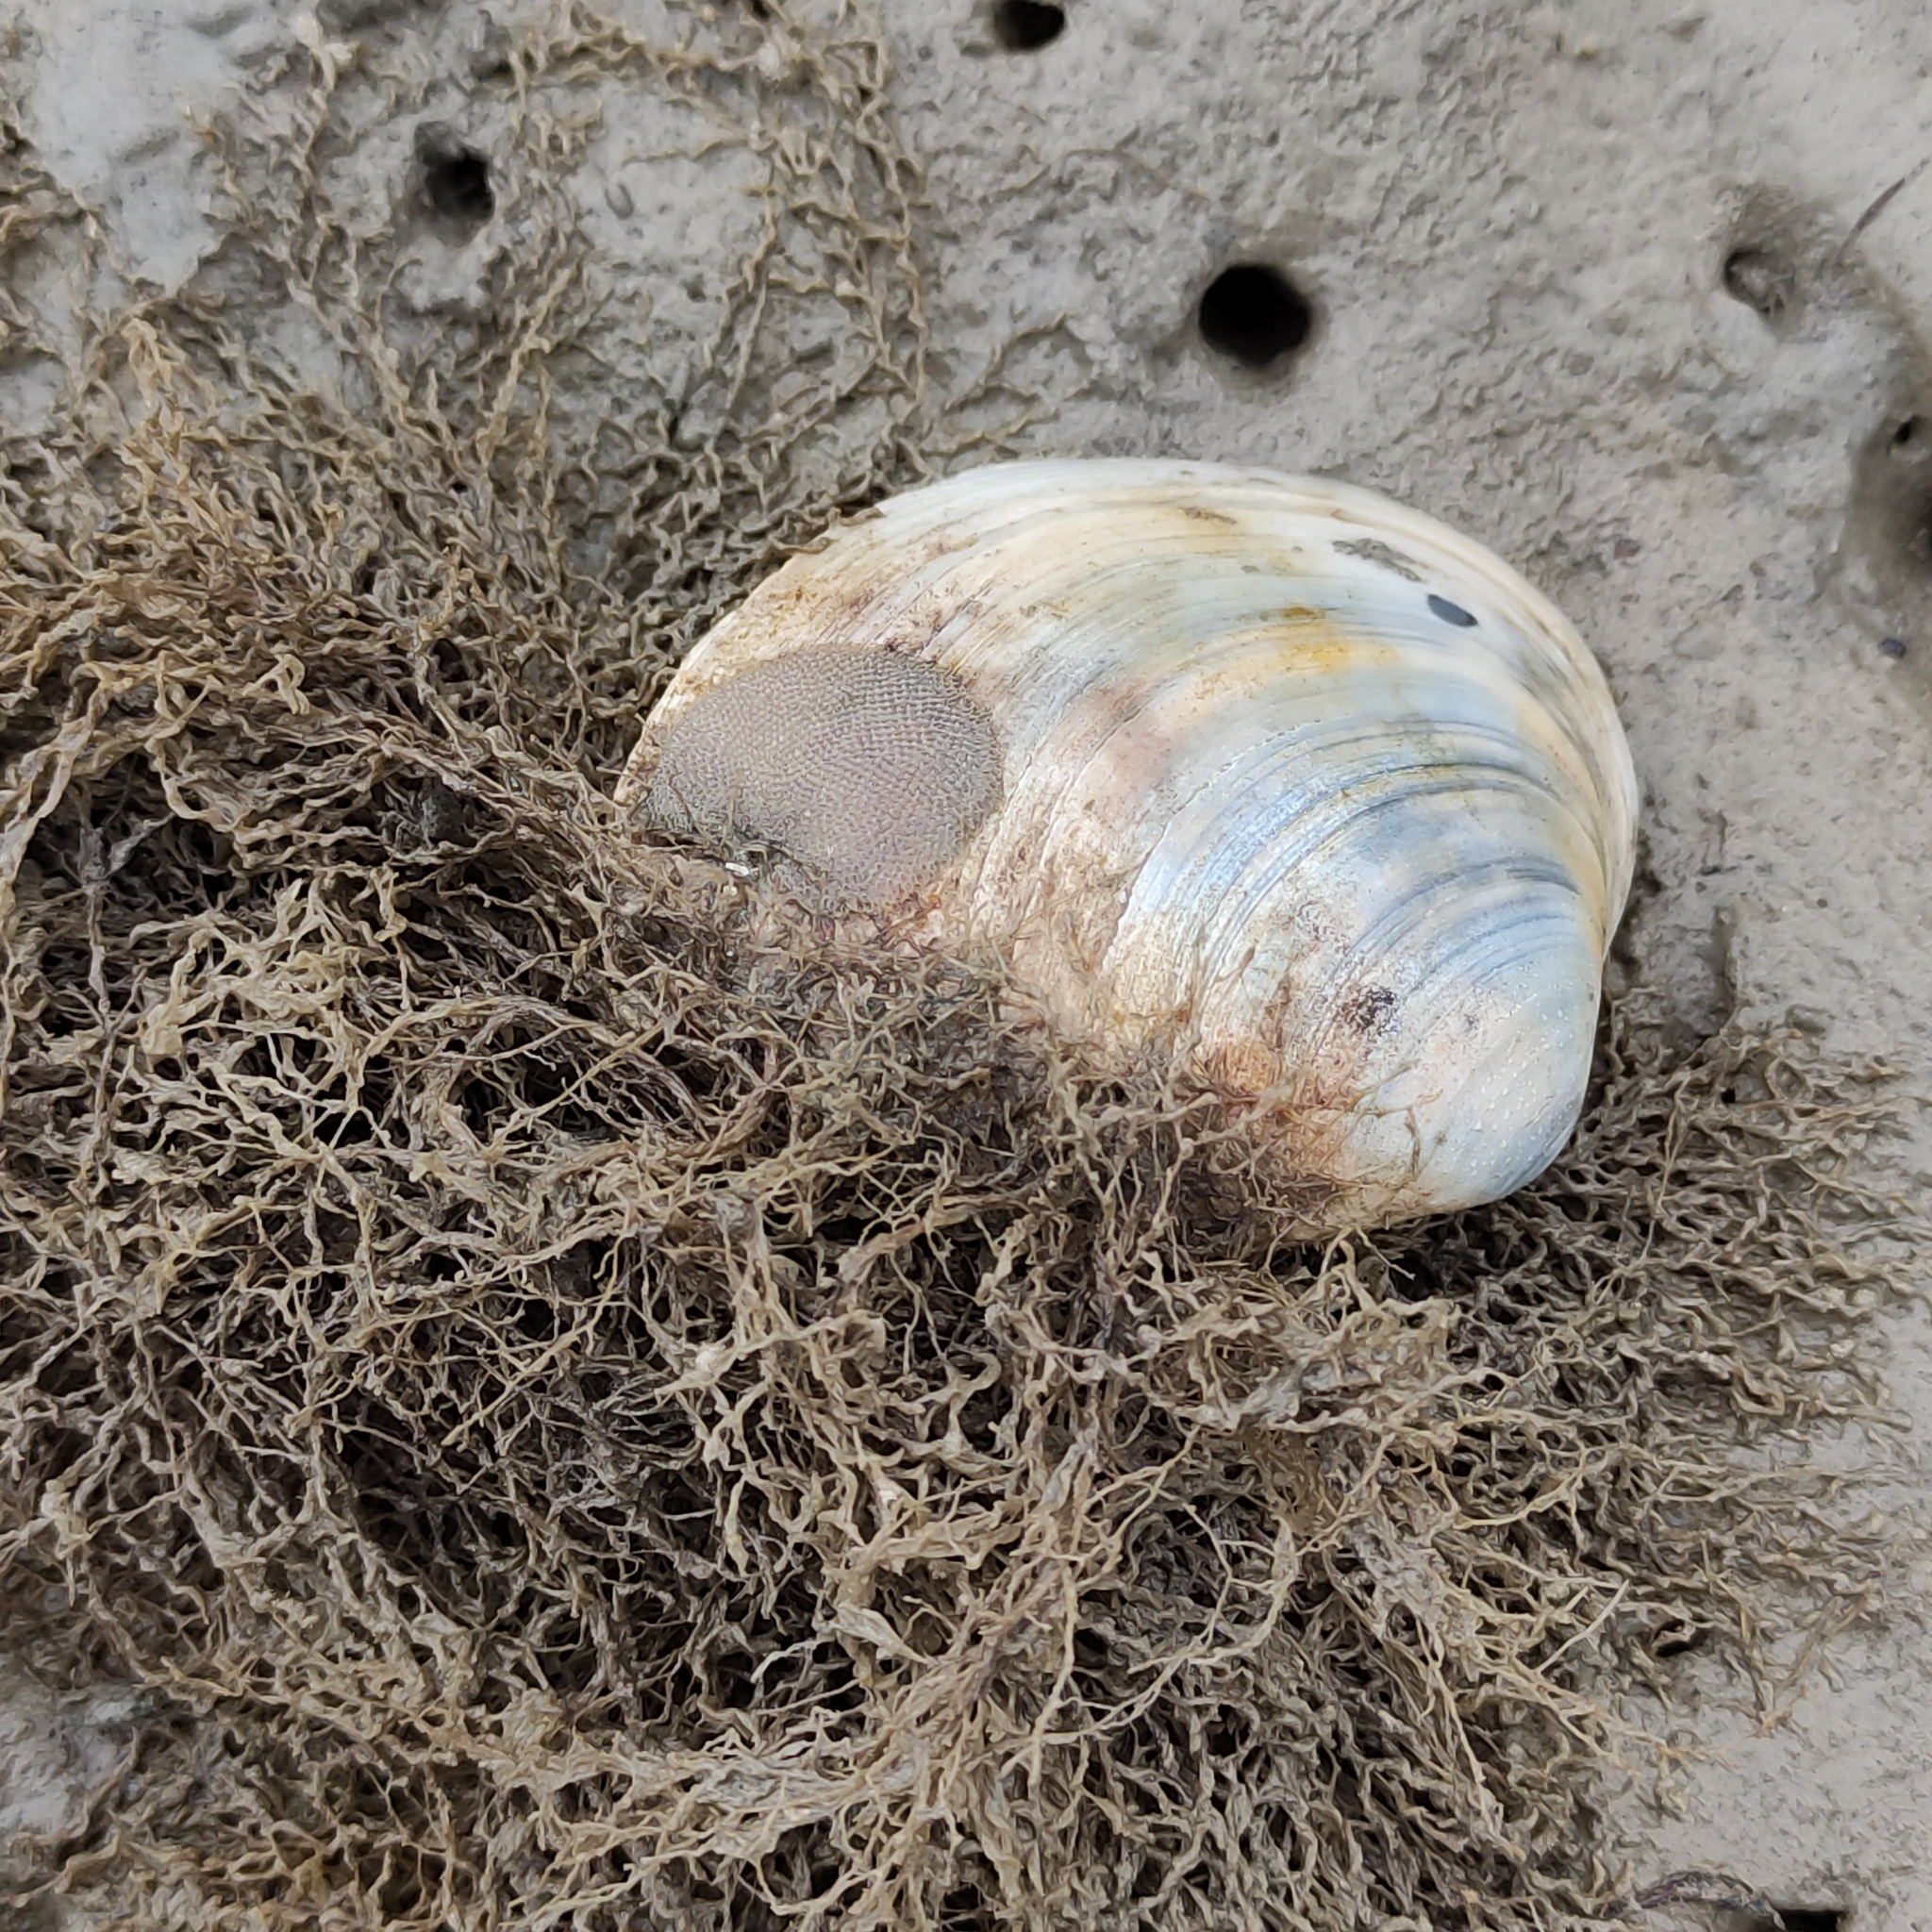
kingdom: Animalia
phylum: Mollusca
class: Bivalvia
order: Venerida
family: Mactridae
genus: Cyclomactra
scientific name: Cyclomactra ovata
